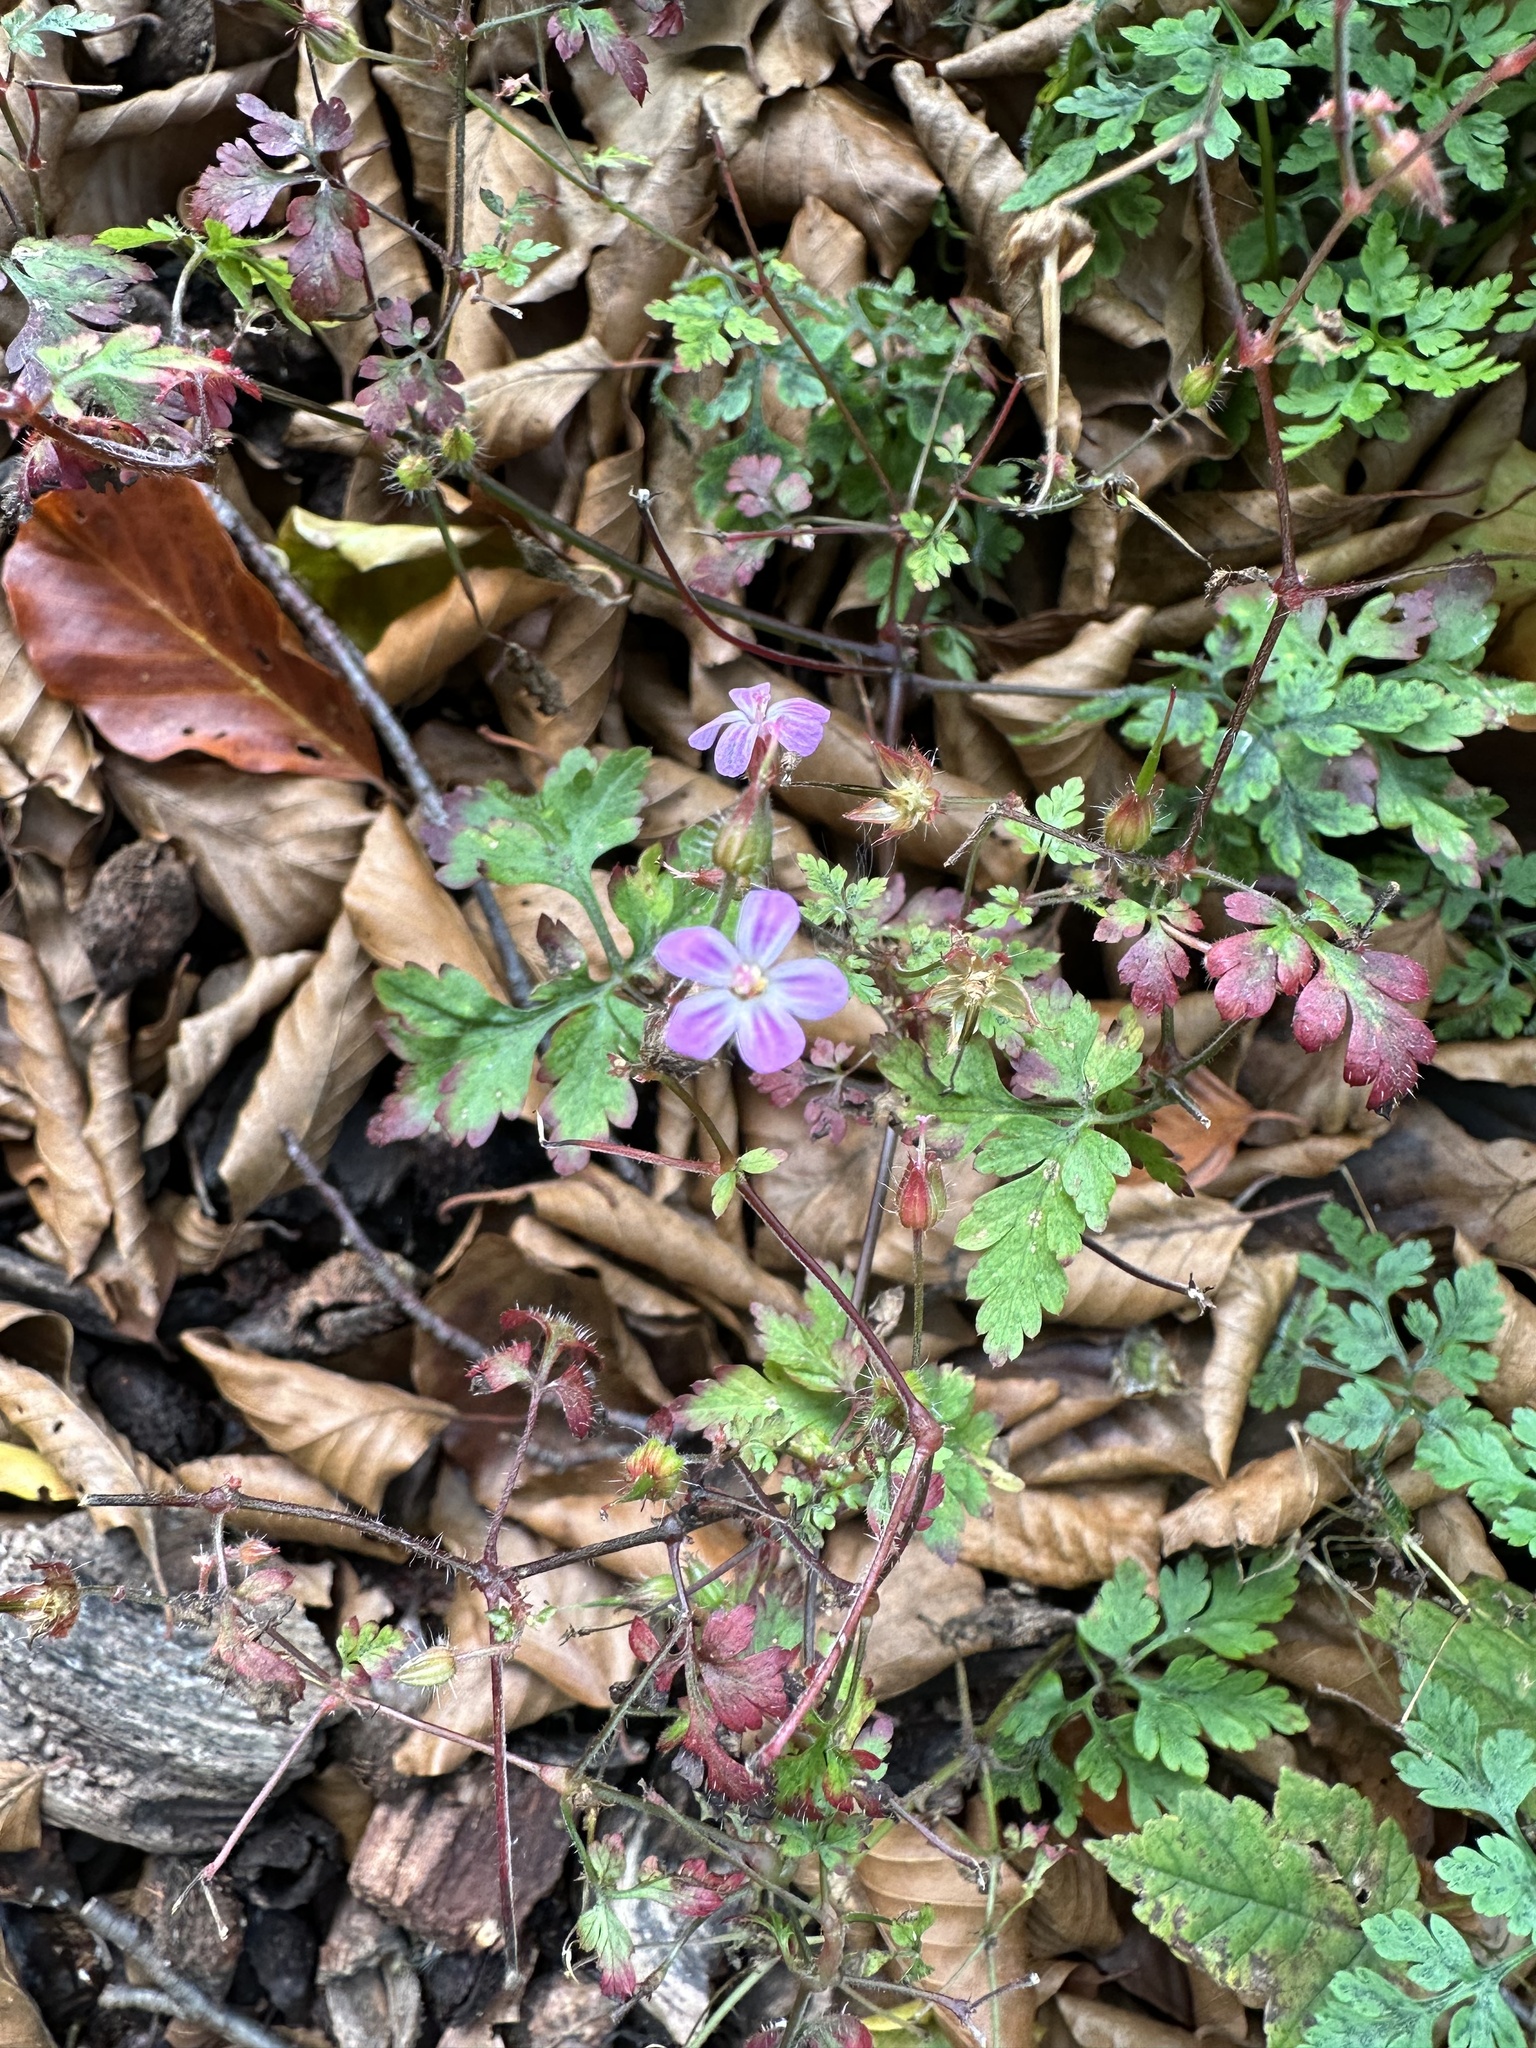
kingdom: Plantae
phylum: Tracheophyta
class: Magnoliopsida
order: Geraniales
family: Geraniaceae
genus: Geranium
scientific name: Geranium robertianum
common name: Herb-robert
